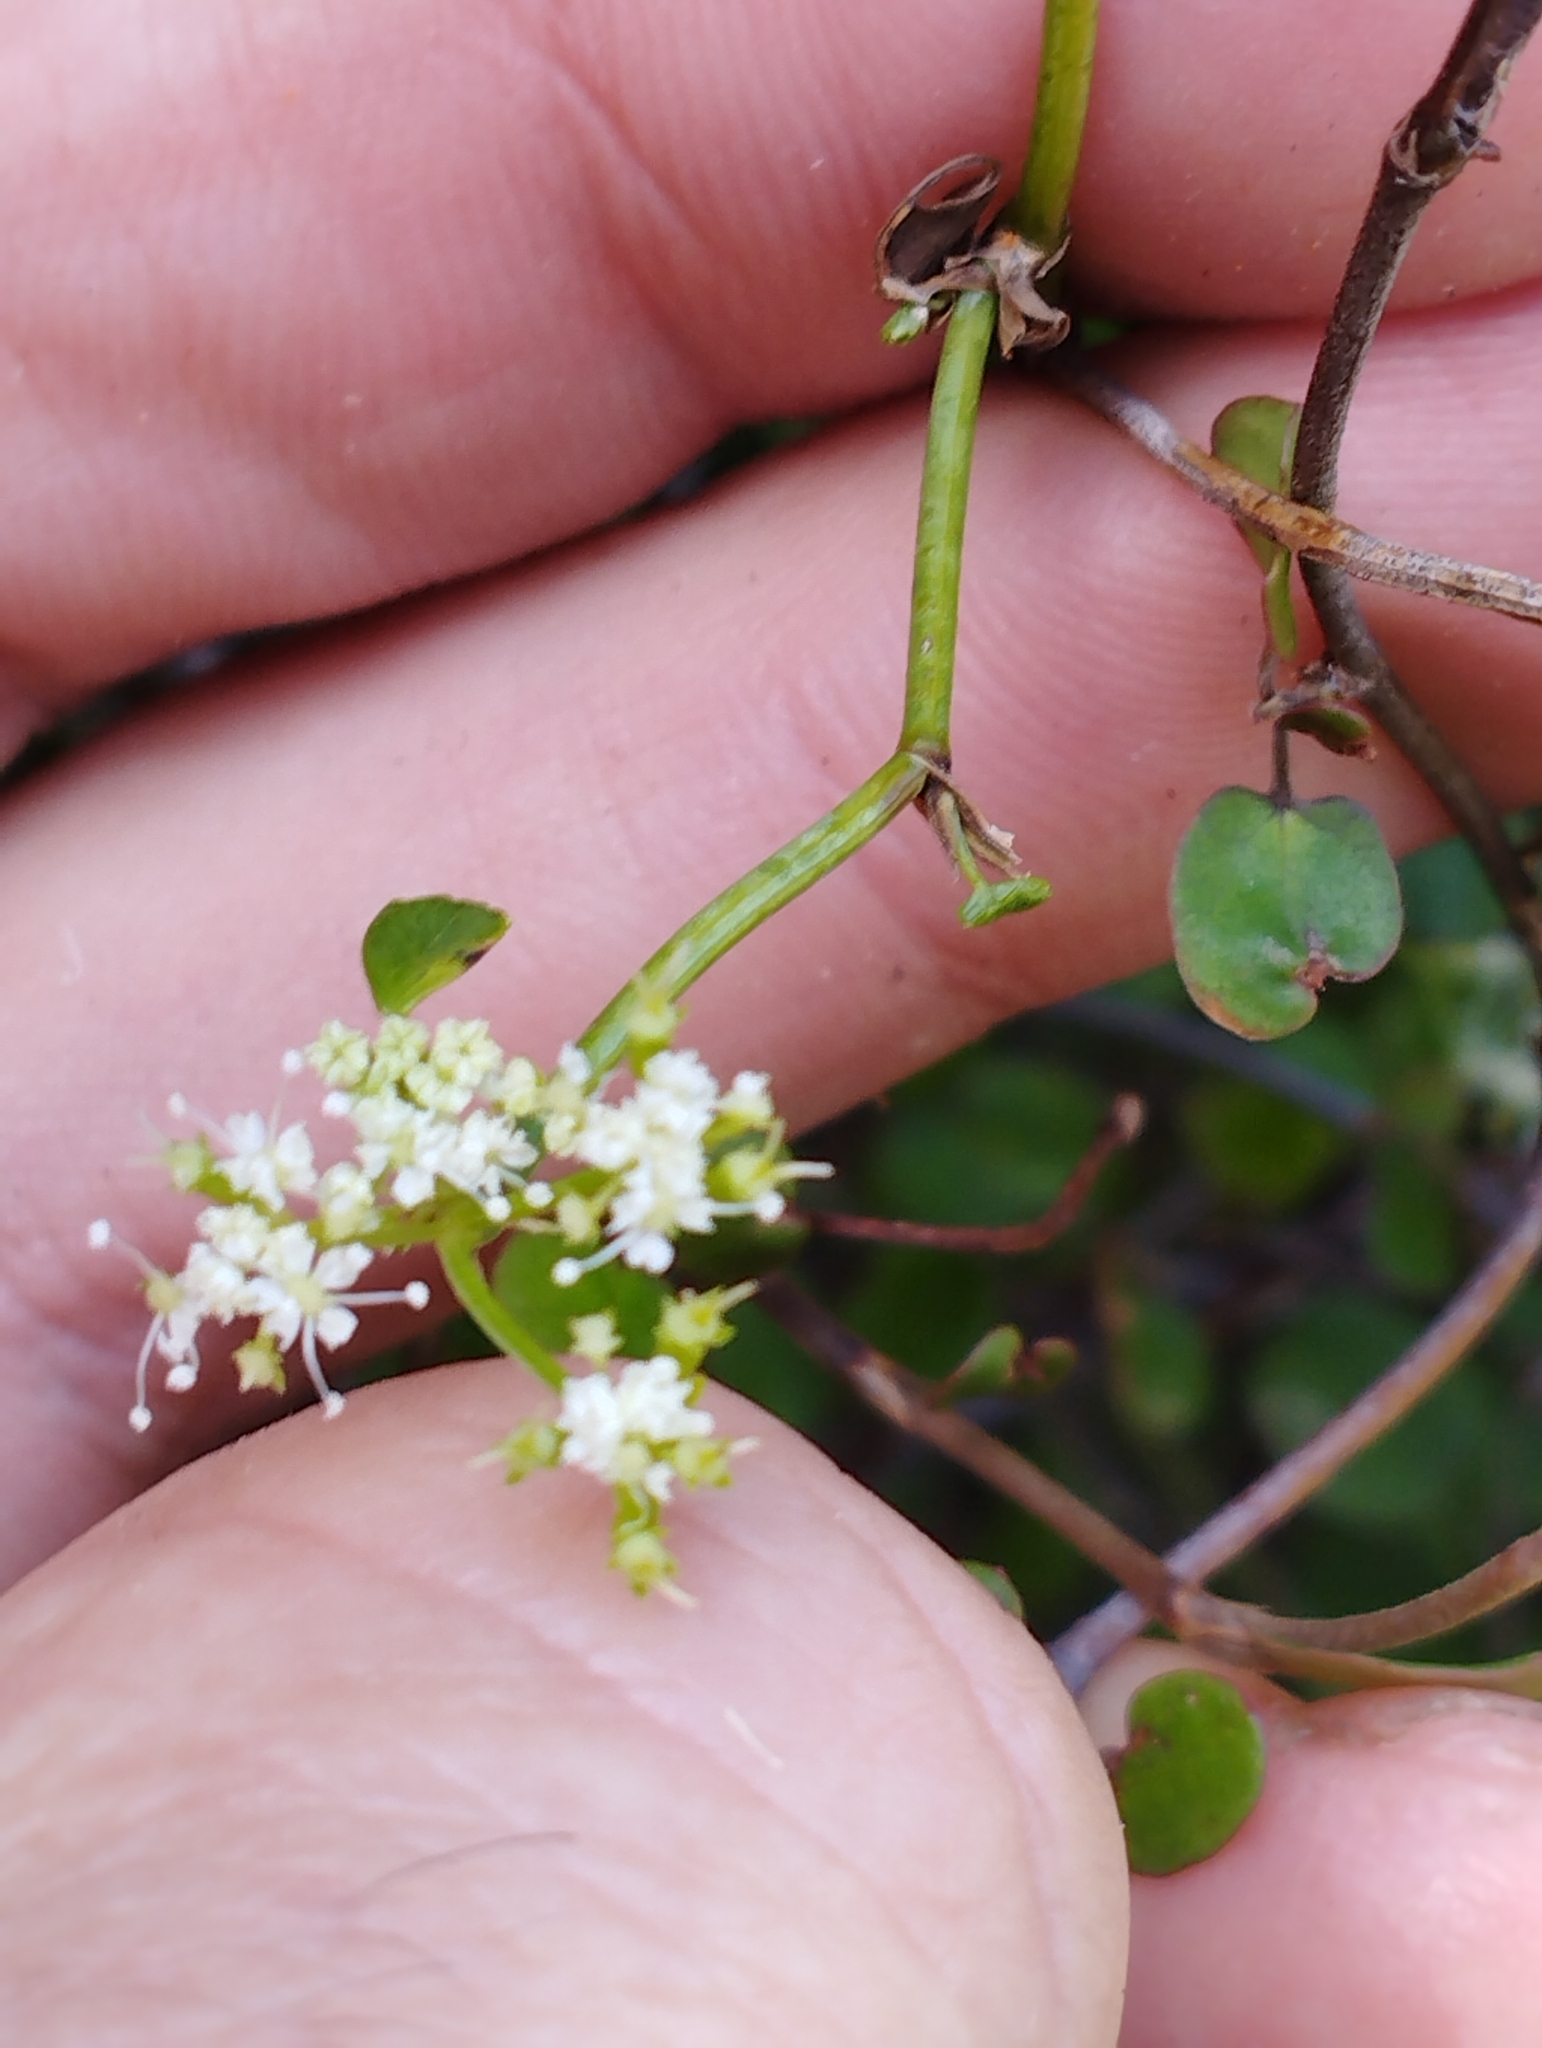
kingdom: Plantae
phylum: Tracheophyta
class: Magnoliopsida
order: Apiales
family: Apiaceae
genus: Scandia
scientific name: Scandia geniculata
